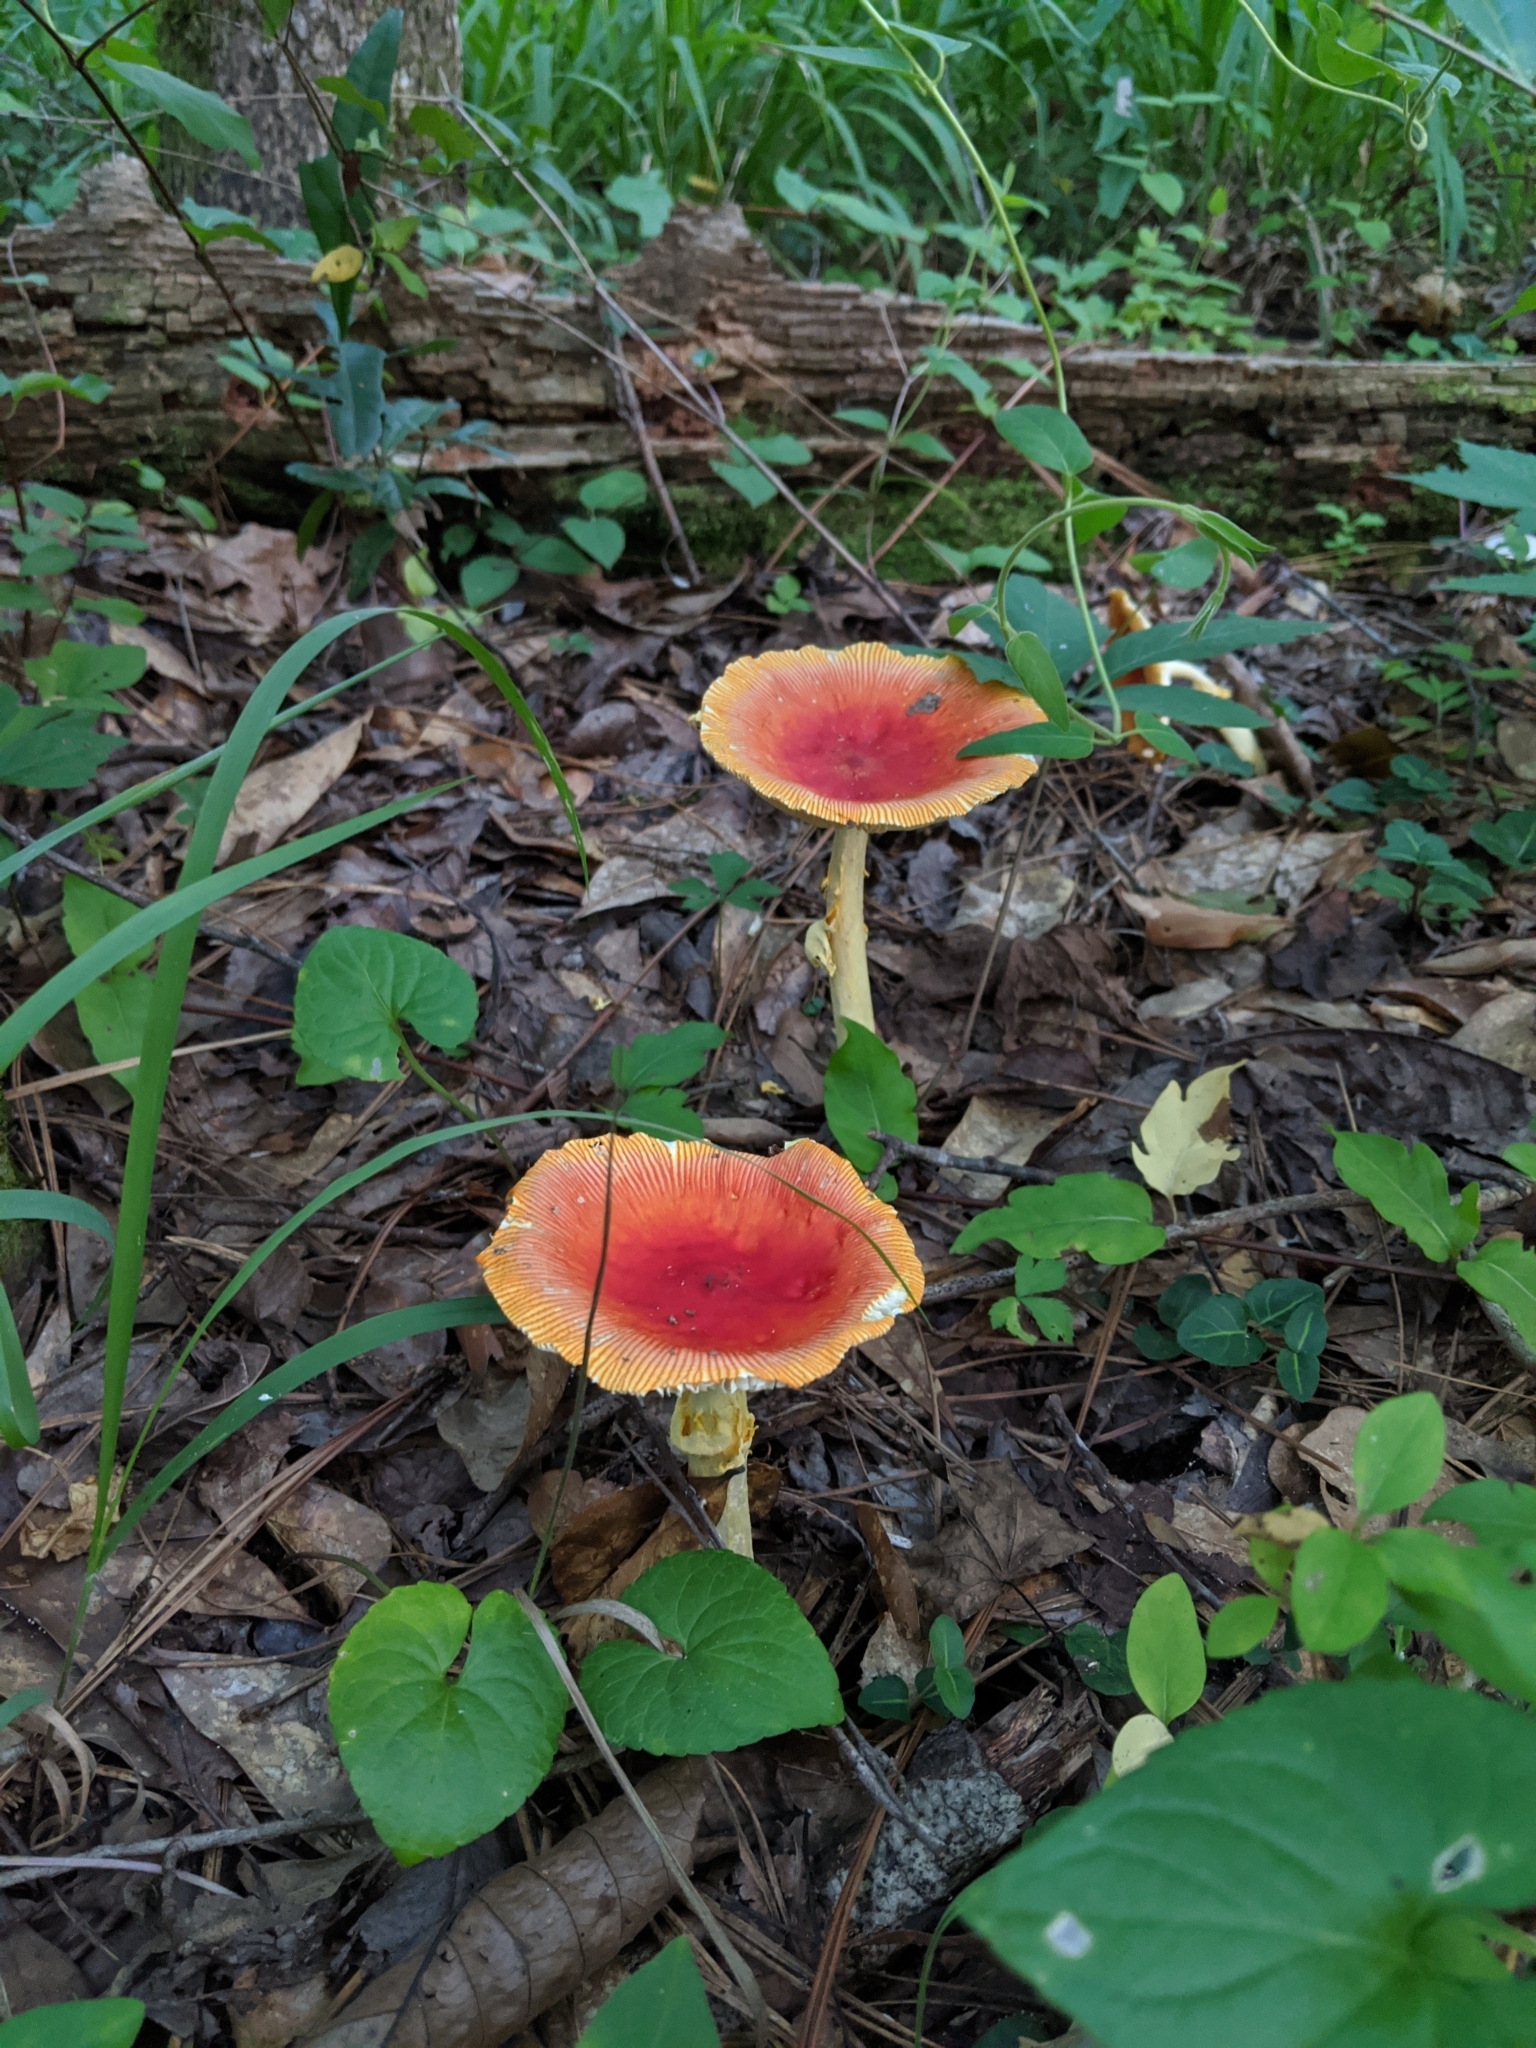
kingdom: Fungi
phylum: Basidiomycota
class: Agaricomycetes
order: Agaricales
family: Amanitaceae
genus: Amanita
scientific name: Amanita jacksonii
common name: Jackson's slender caesar
